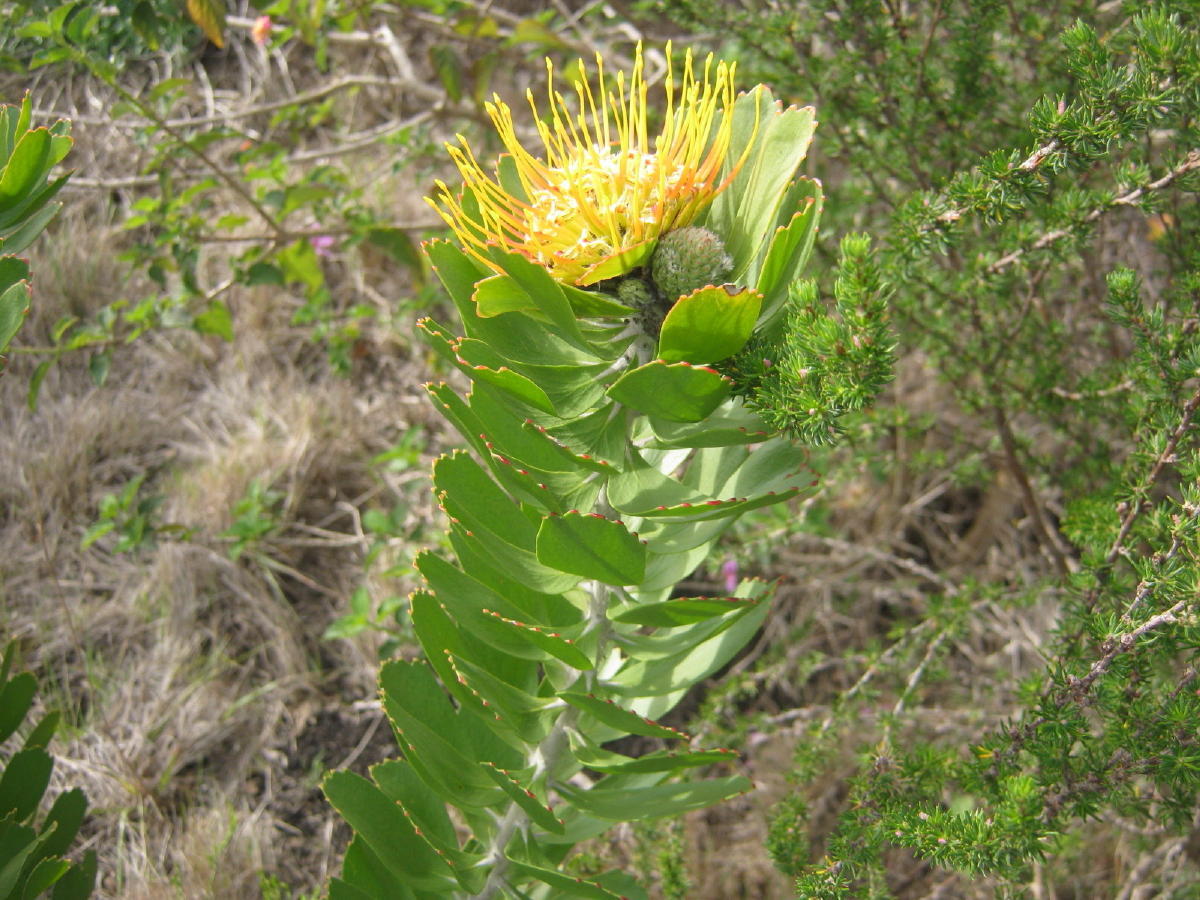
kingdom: Plantae
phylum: Tracheophyta
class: Magnoliopsida
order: Proteales
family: Proteaceae
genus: Leucospermum
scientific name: Leucospermum praecox
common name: Mossel bay pincushion
